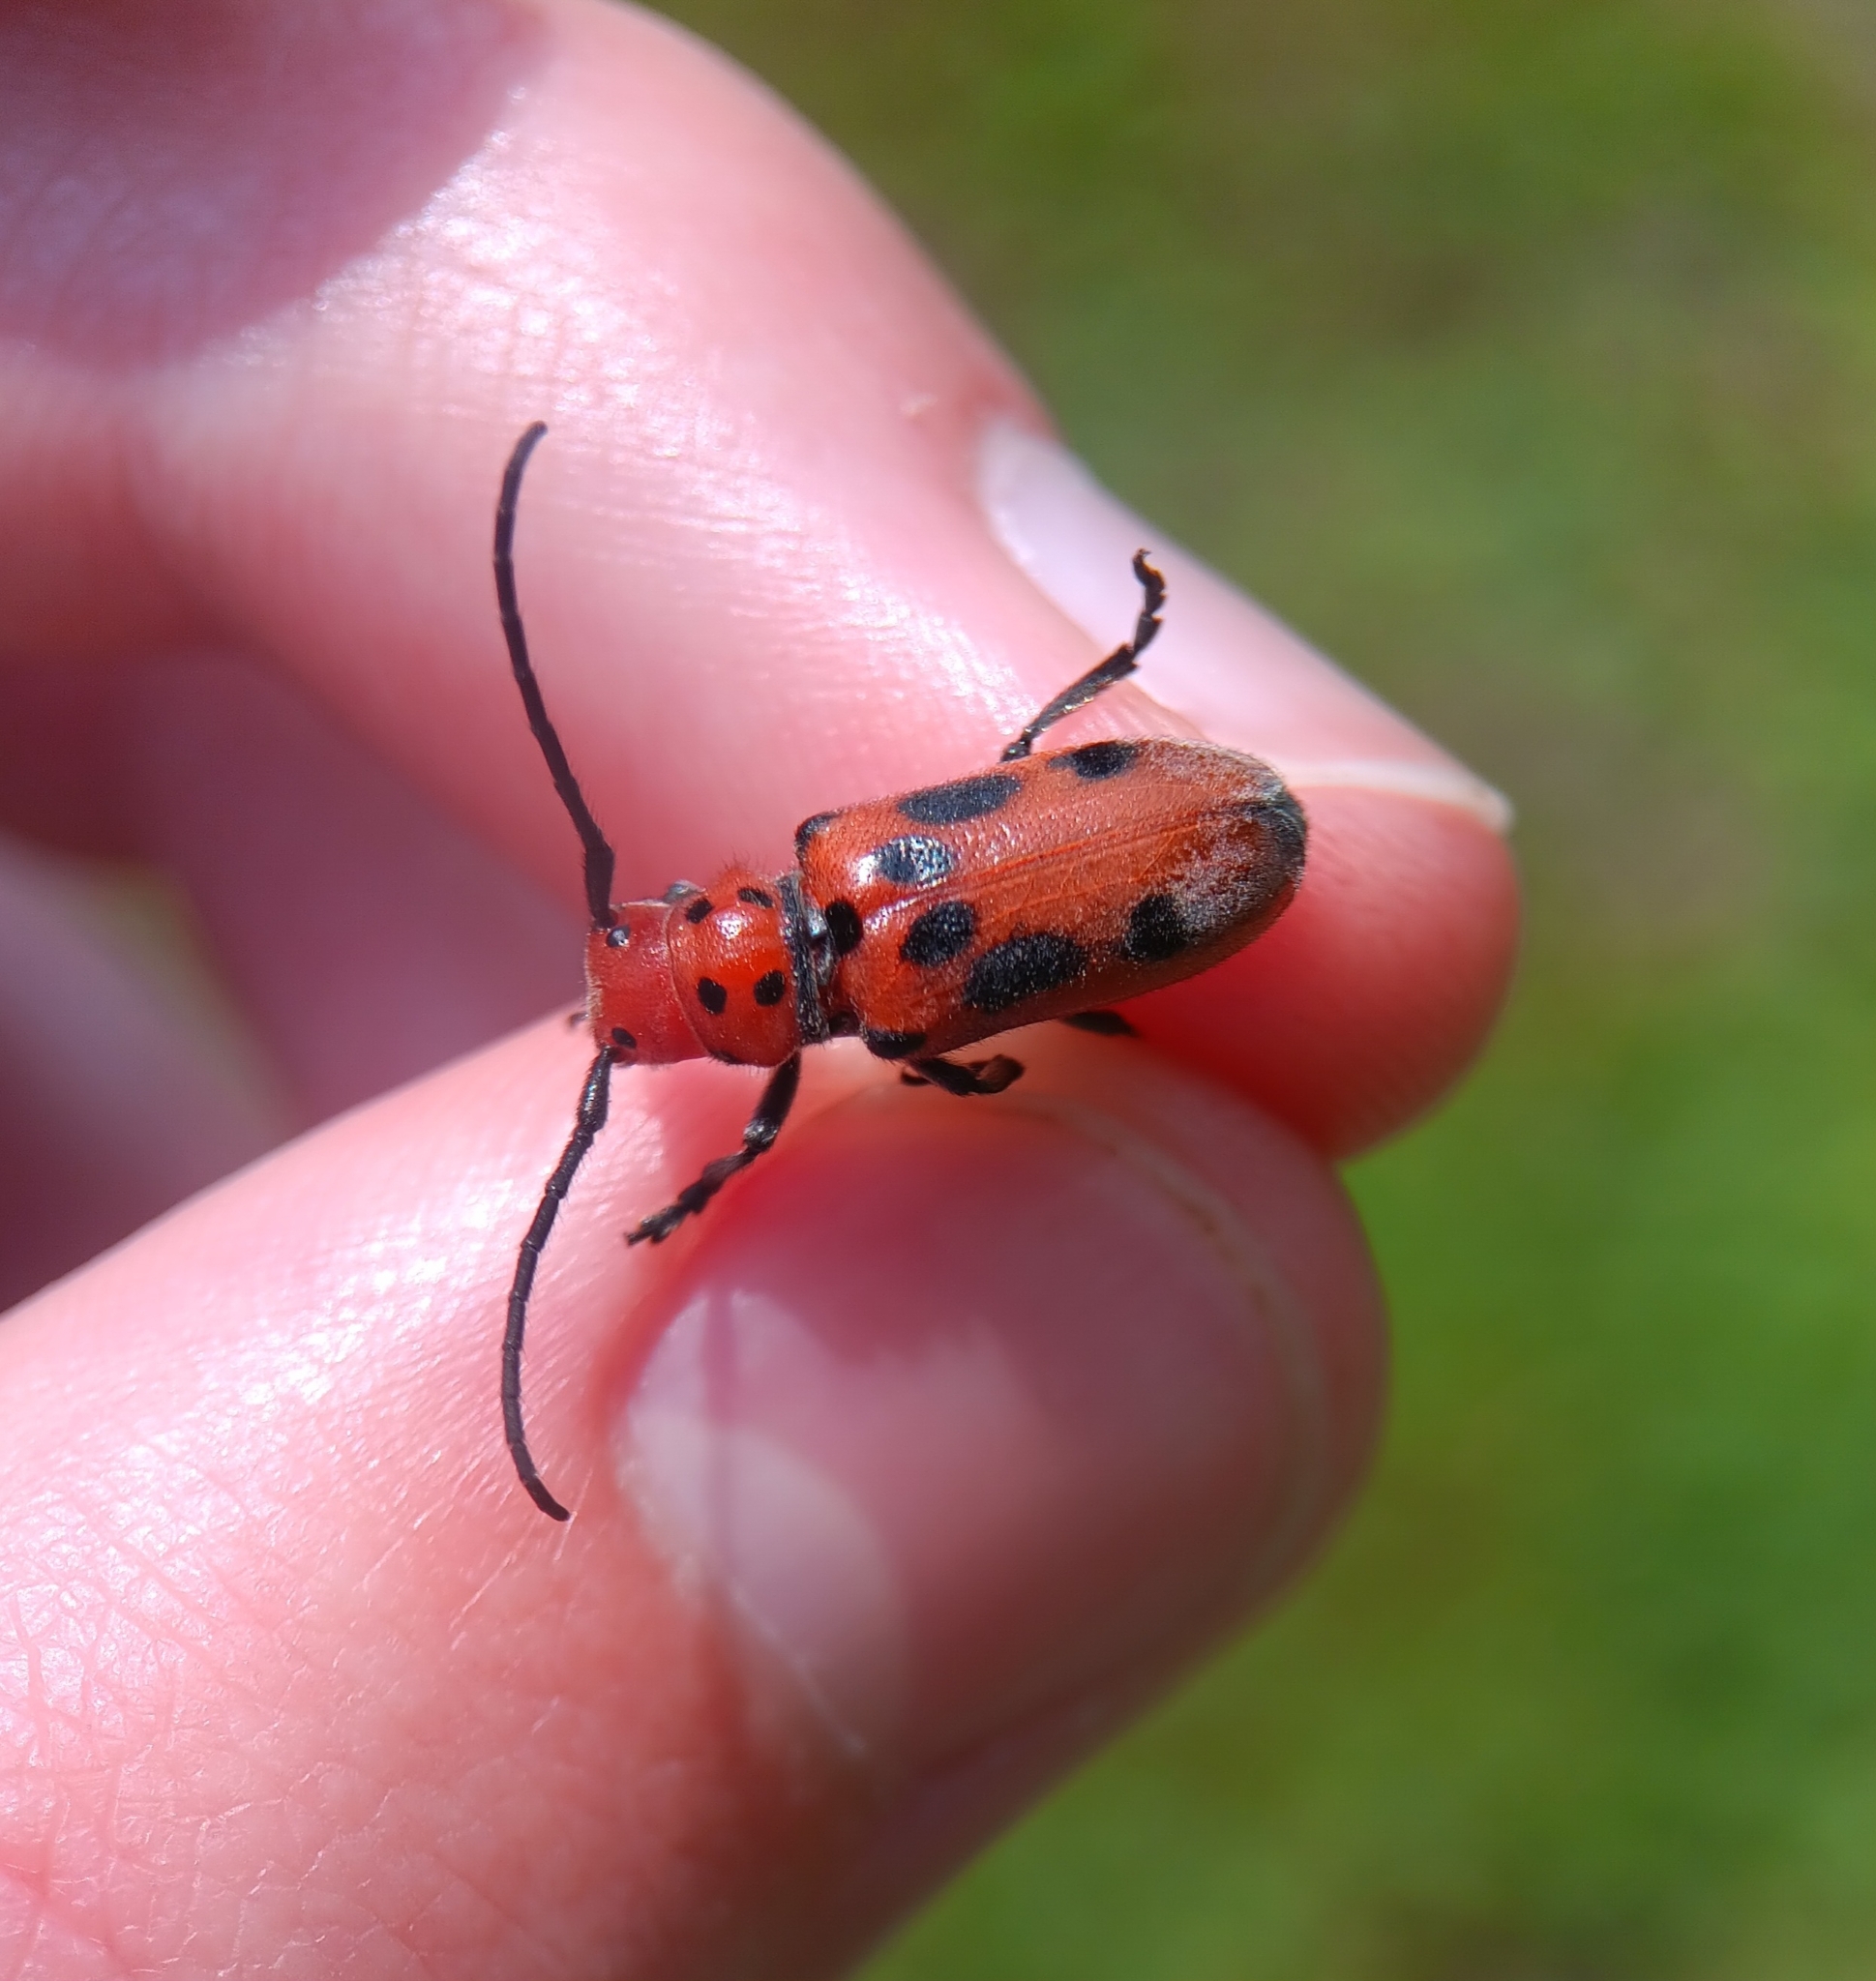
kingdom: Animalia
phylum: Arthropoda
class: Insecta
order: Coleoptera
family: Cerambycidae
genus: Tetraopes
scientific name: Tetraopes tetrophthalmus
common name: Red milkweed beetle
